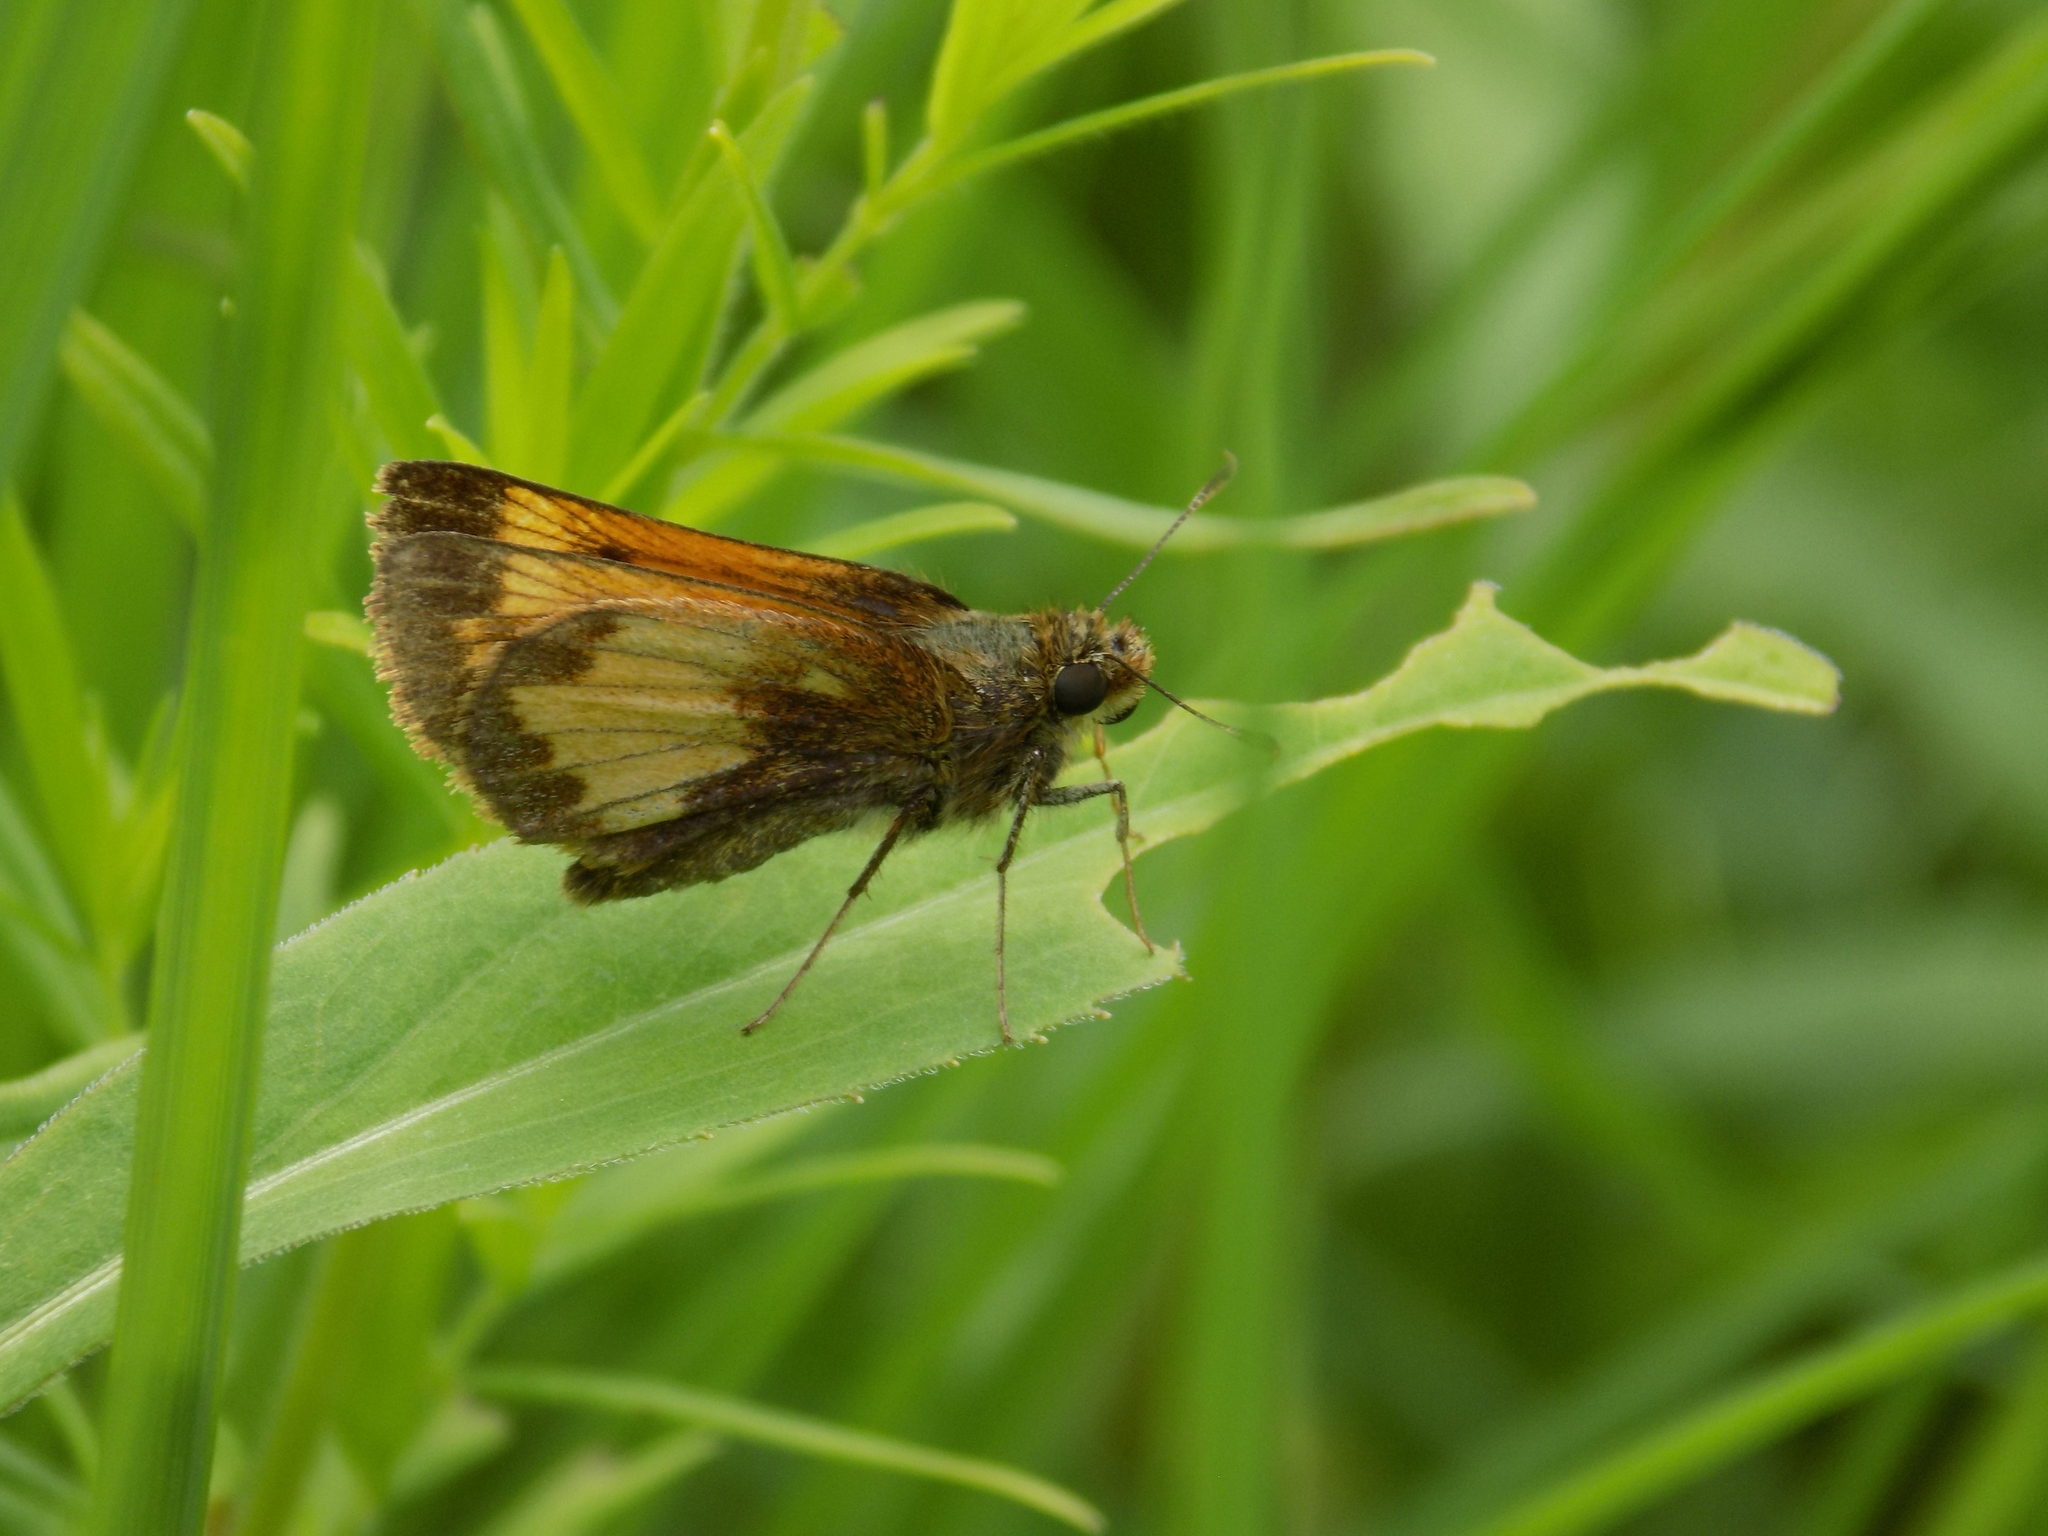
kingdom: Animalia
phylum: Arthropoda
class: Insecta
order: Lepidoptera
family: Hesperiidae
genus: Lon
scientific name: Lon hobomok
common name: Hobomok skipper
